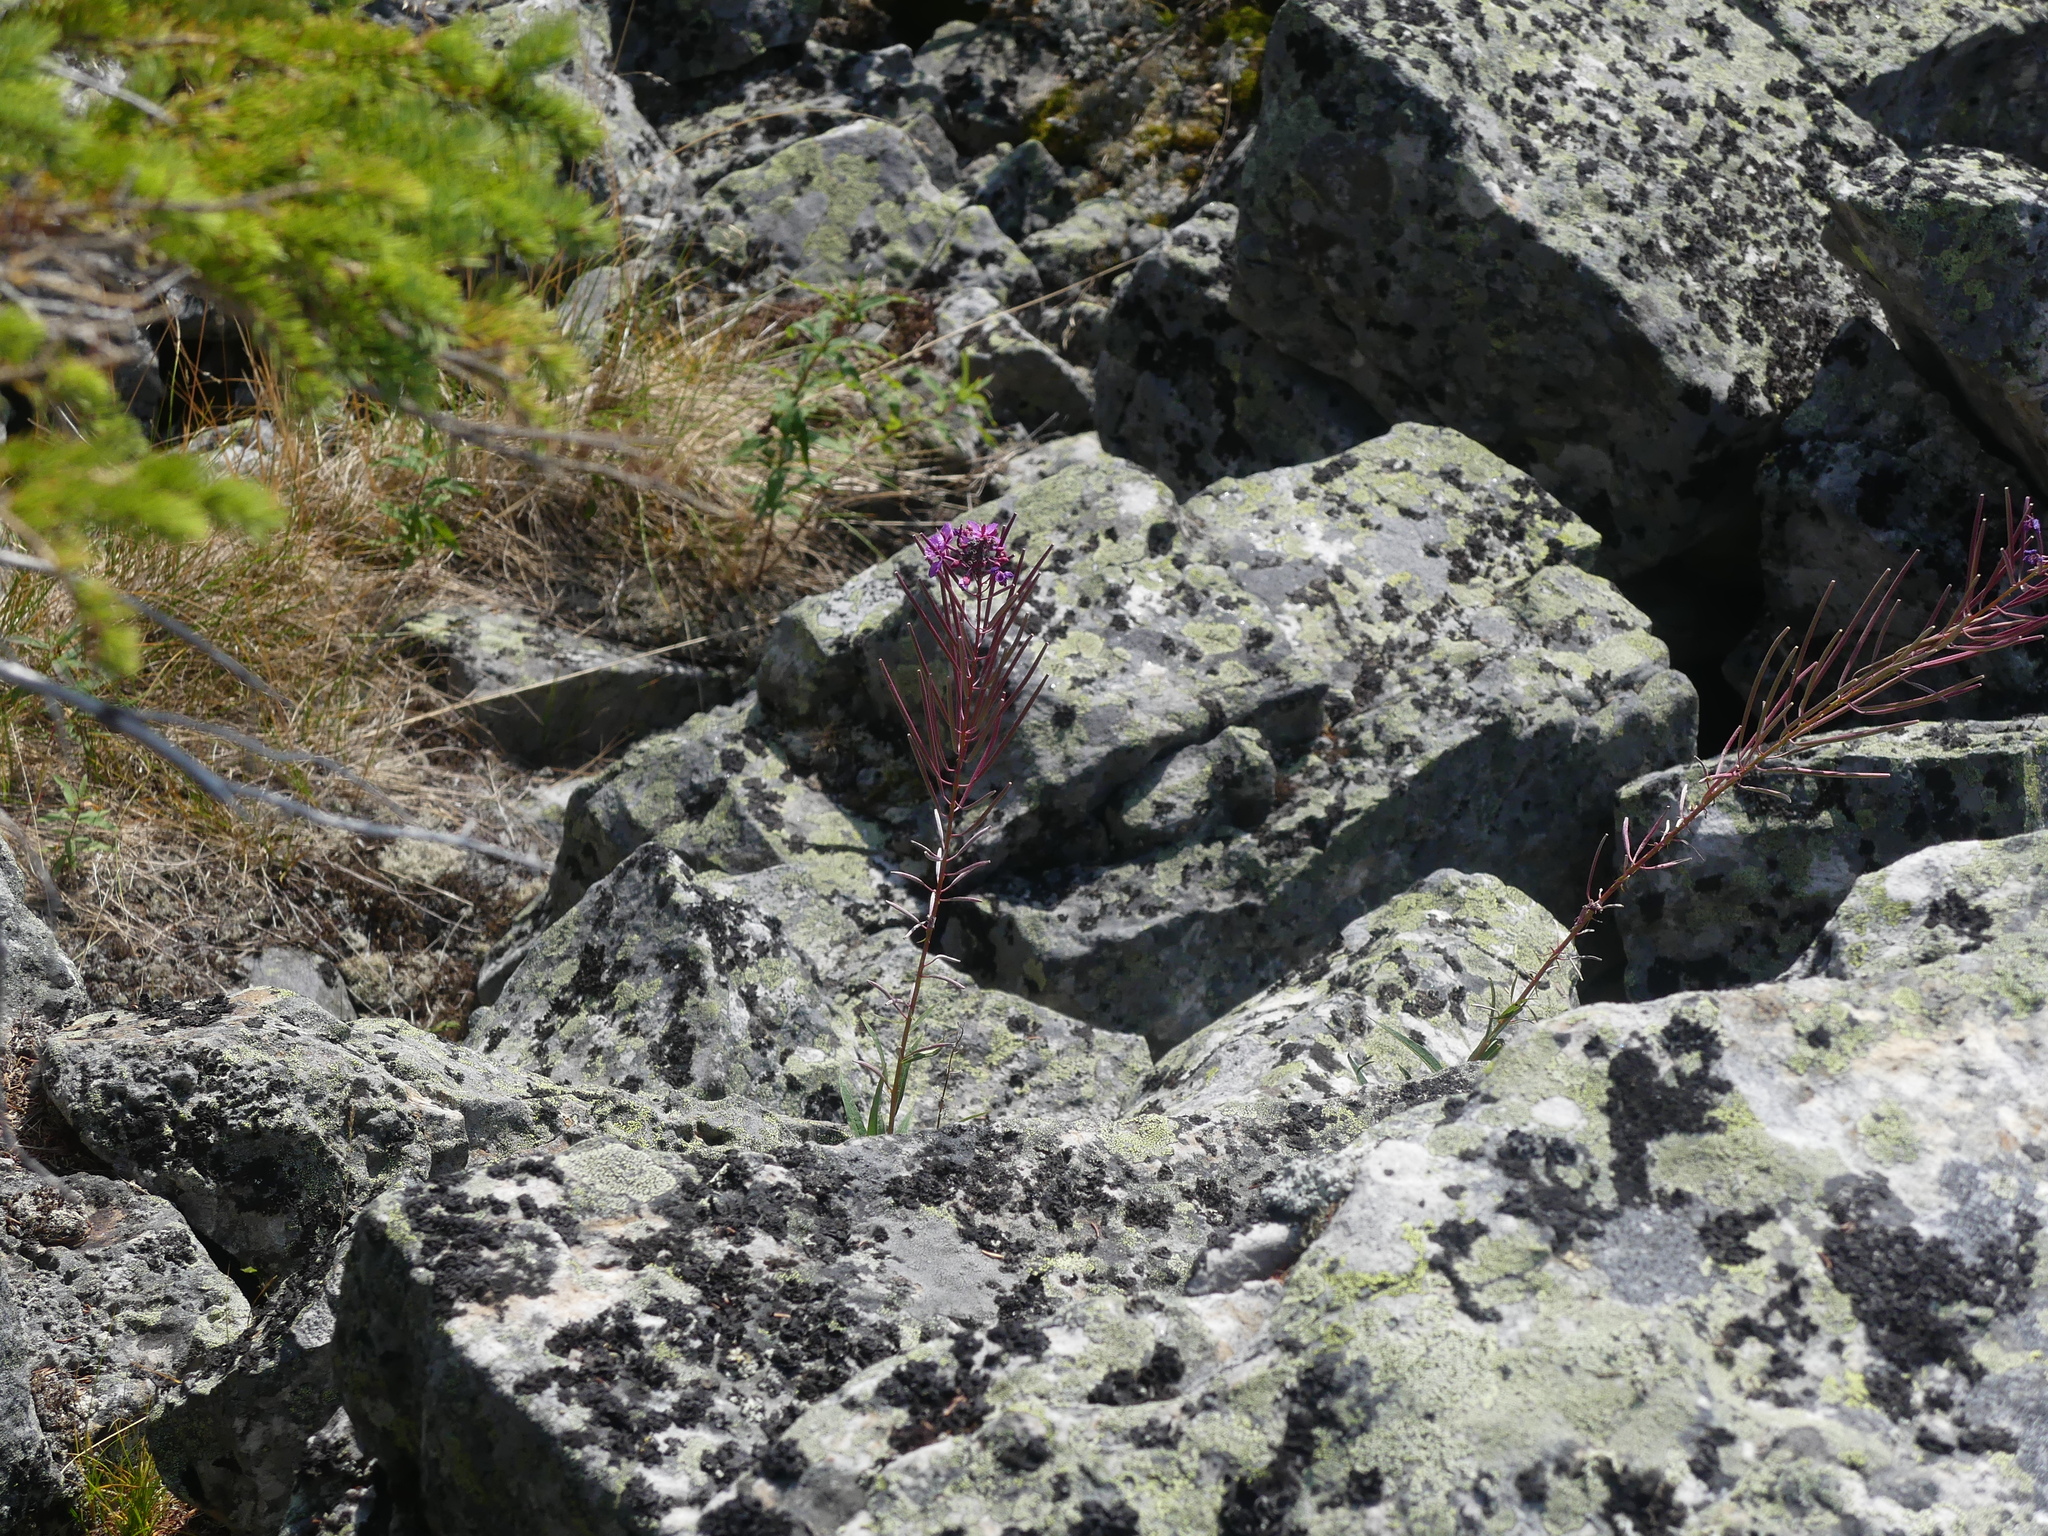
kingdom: Plantae
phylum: Tracheophyta
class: Magnoliopsida
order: Myrtales
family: Onagraceae
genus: Chamaenerion
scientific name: Chamaenerion angustifolium
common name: Fireweed
